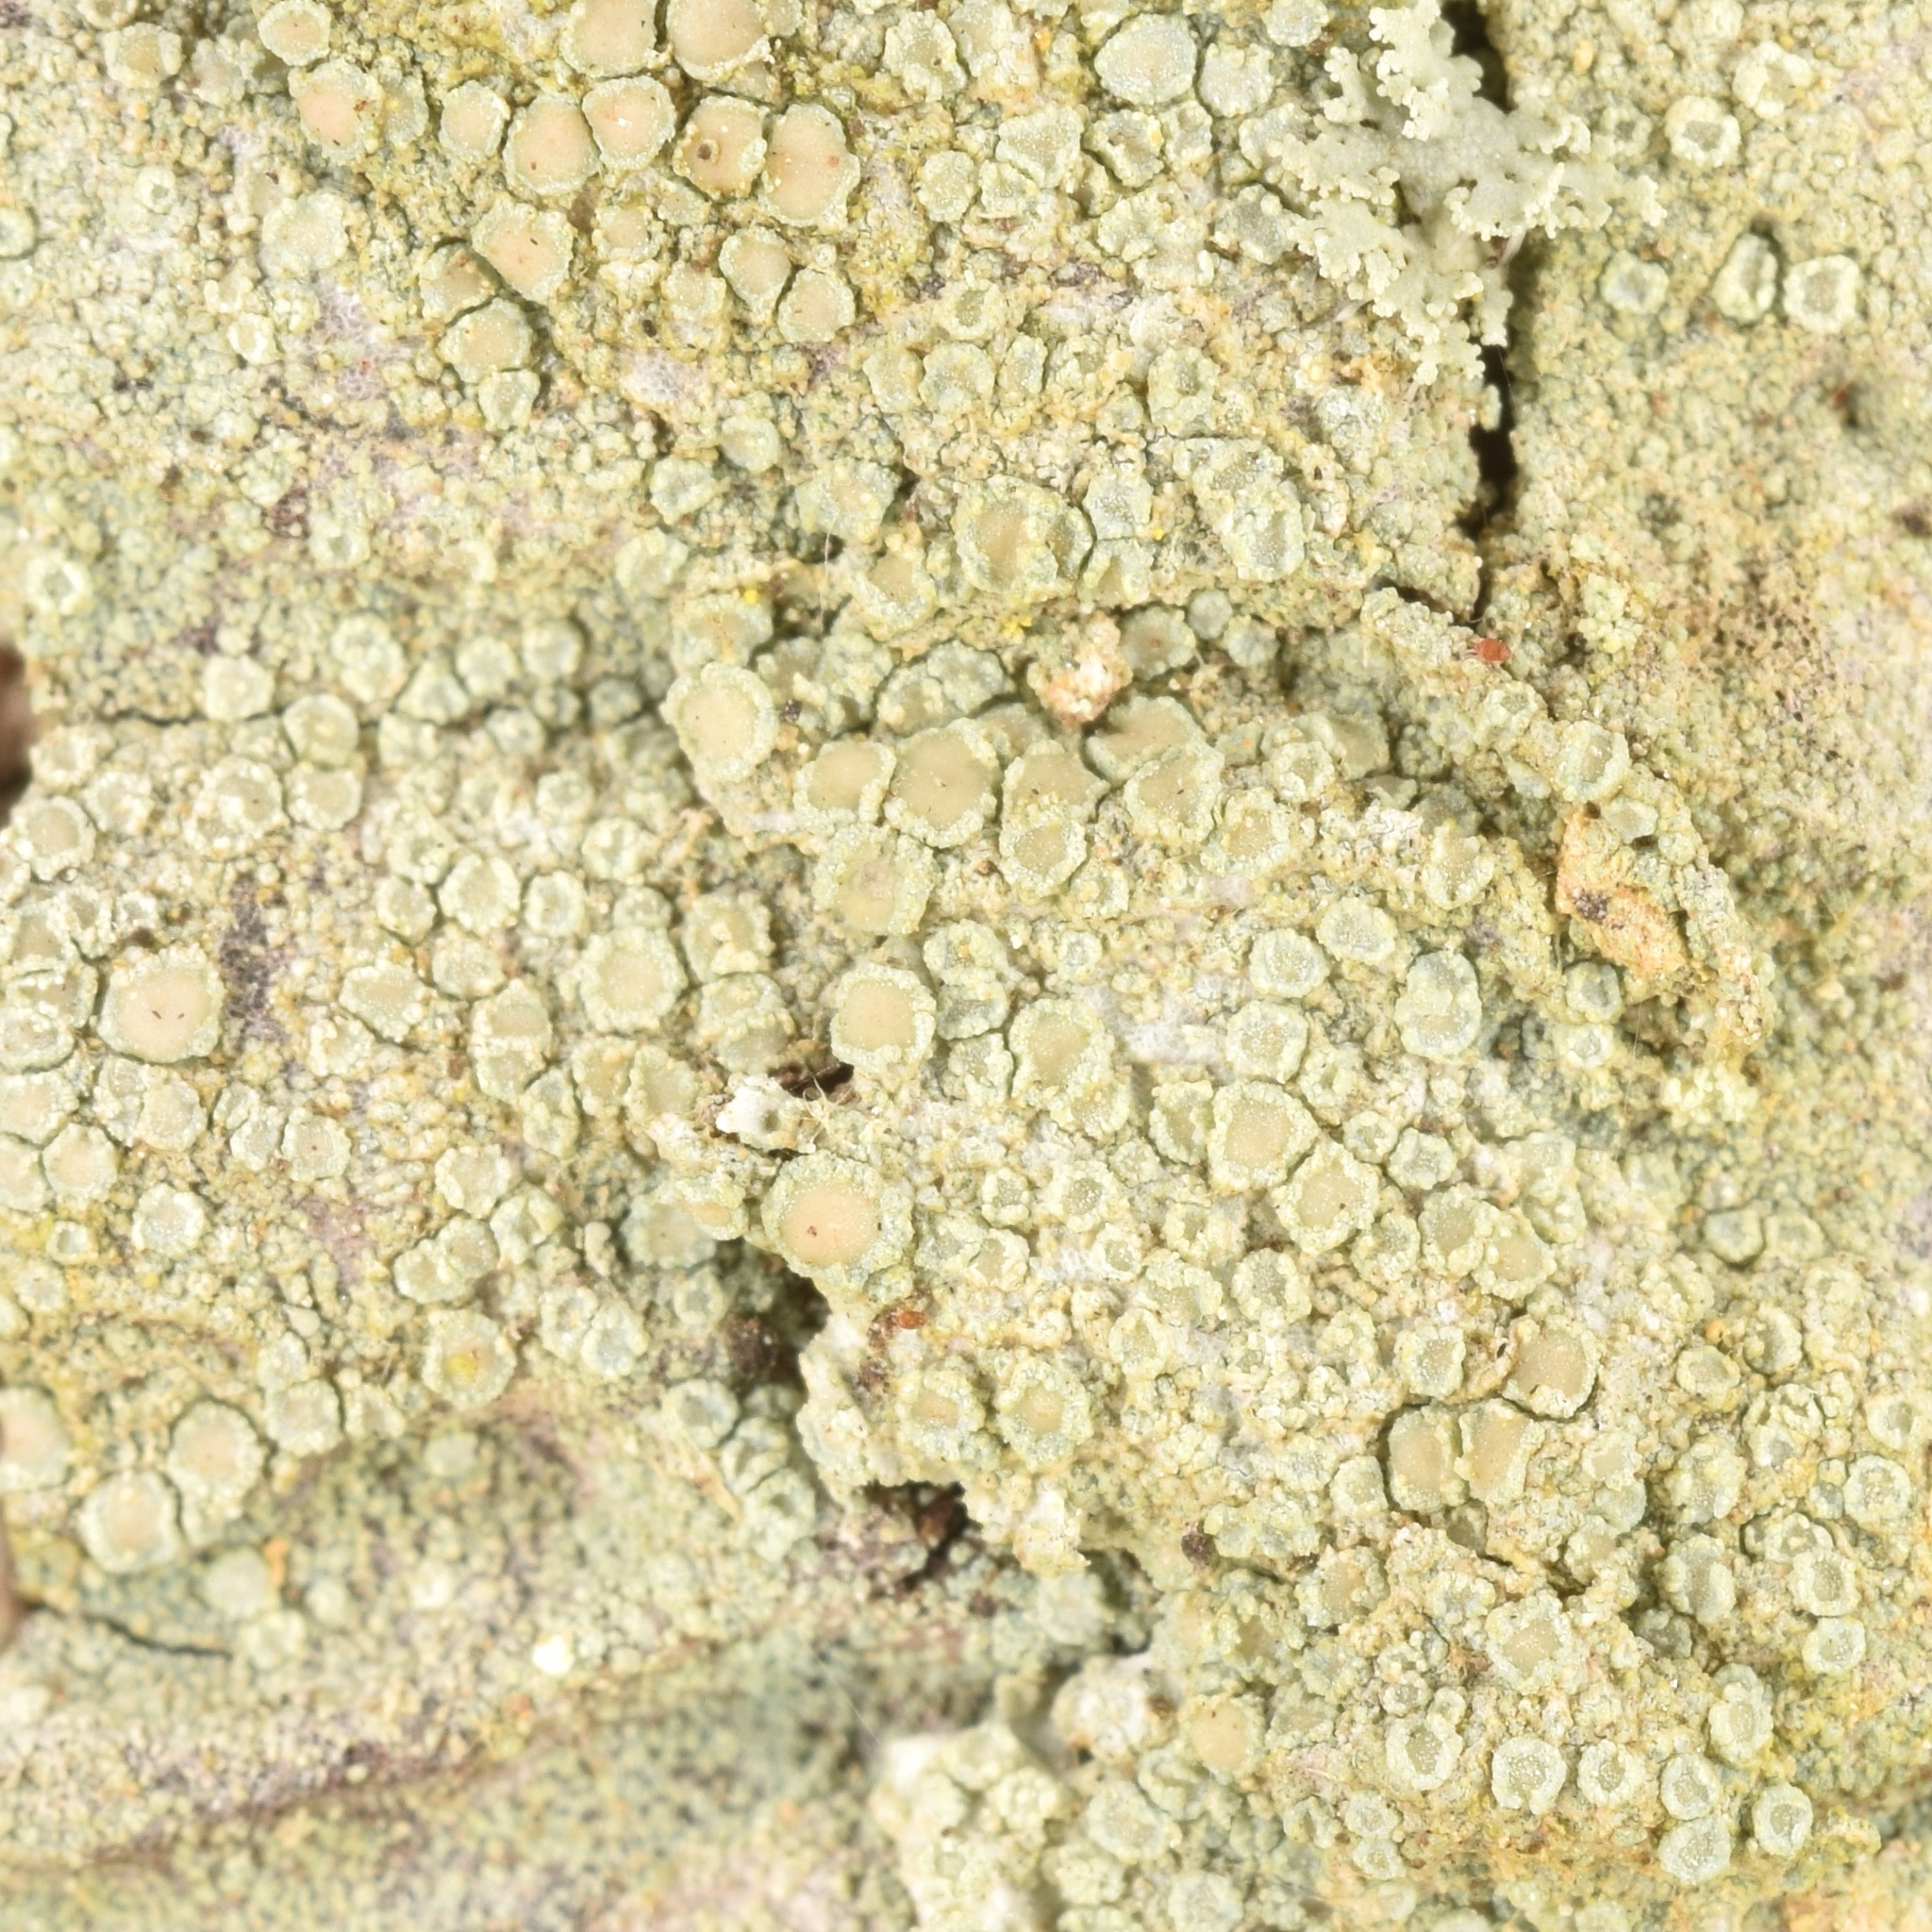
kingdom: Fungi
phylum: Ascomycota
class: Lecanoromycetes
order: Lecanorales
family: Lecanoraceae
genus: Lecanora
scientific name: Lecanora strobilina
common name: Mealy rim-lichen
